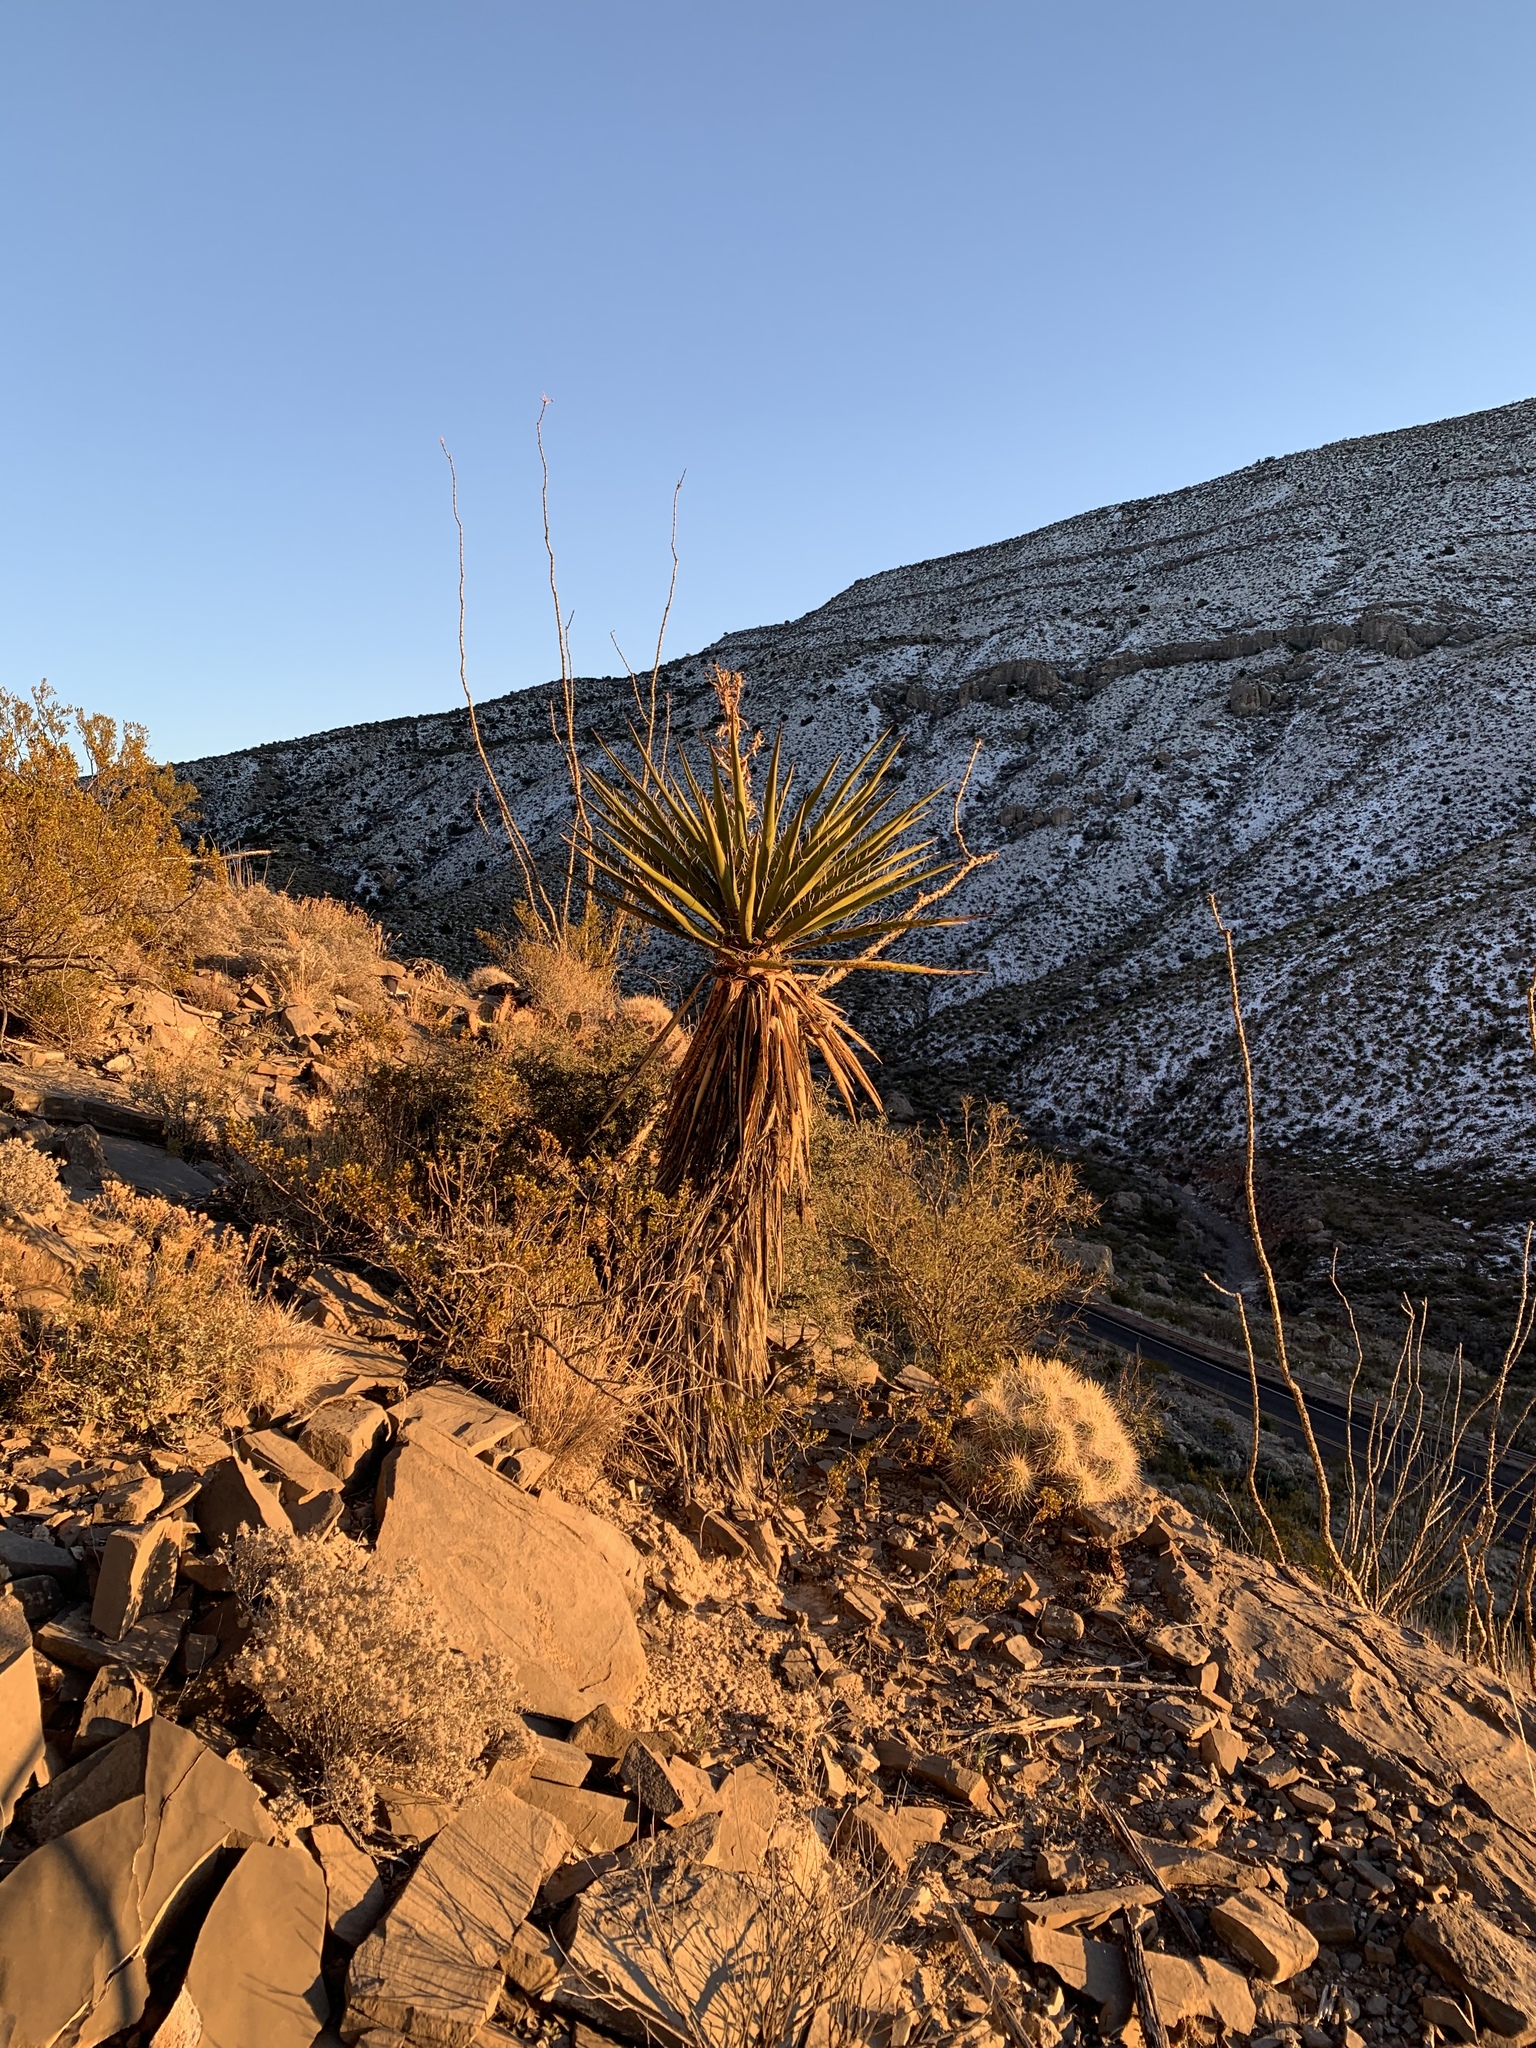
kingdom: Plantae
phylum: Tracheophyta
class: Liliopsida
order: Asparagales
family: Asparagaceae
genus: Yucca
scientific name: Yucca treculiana
